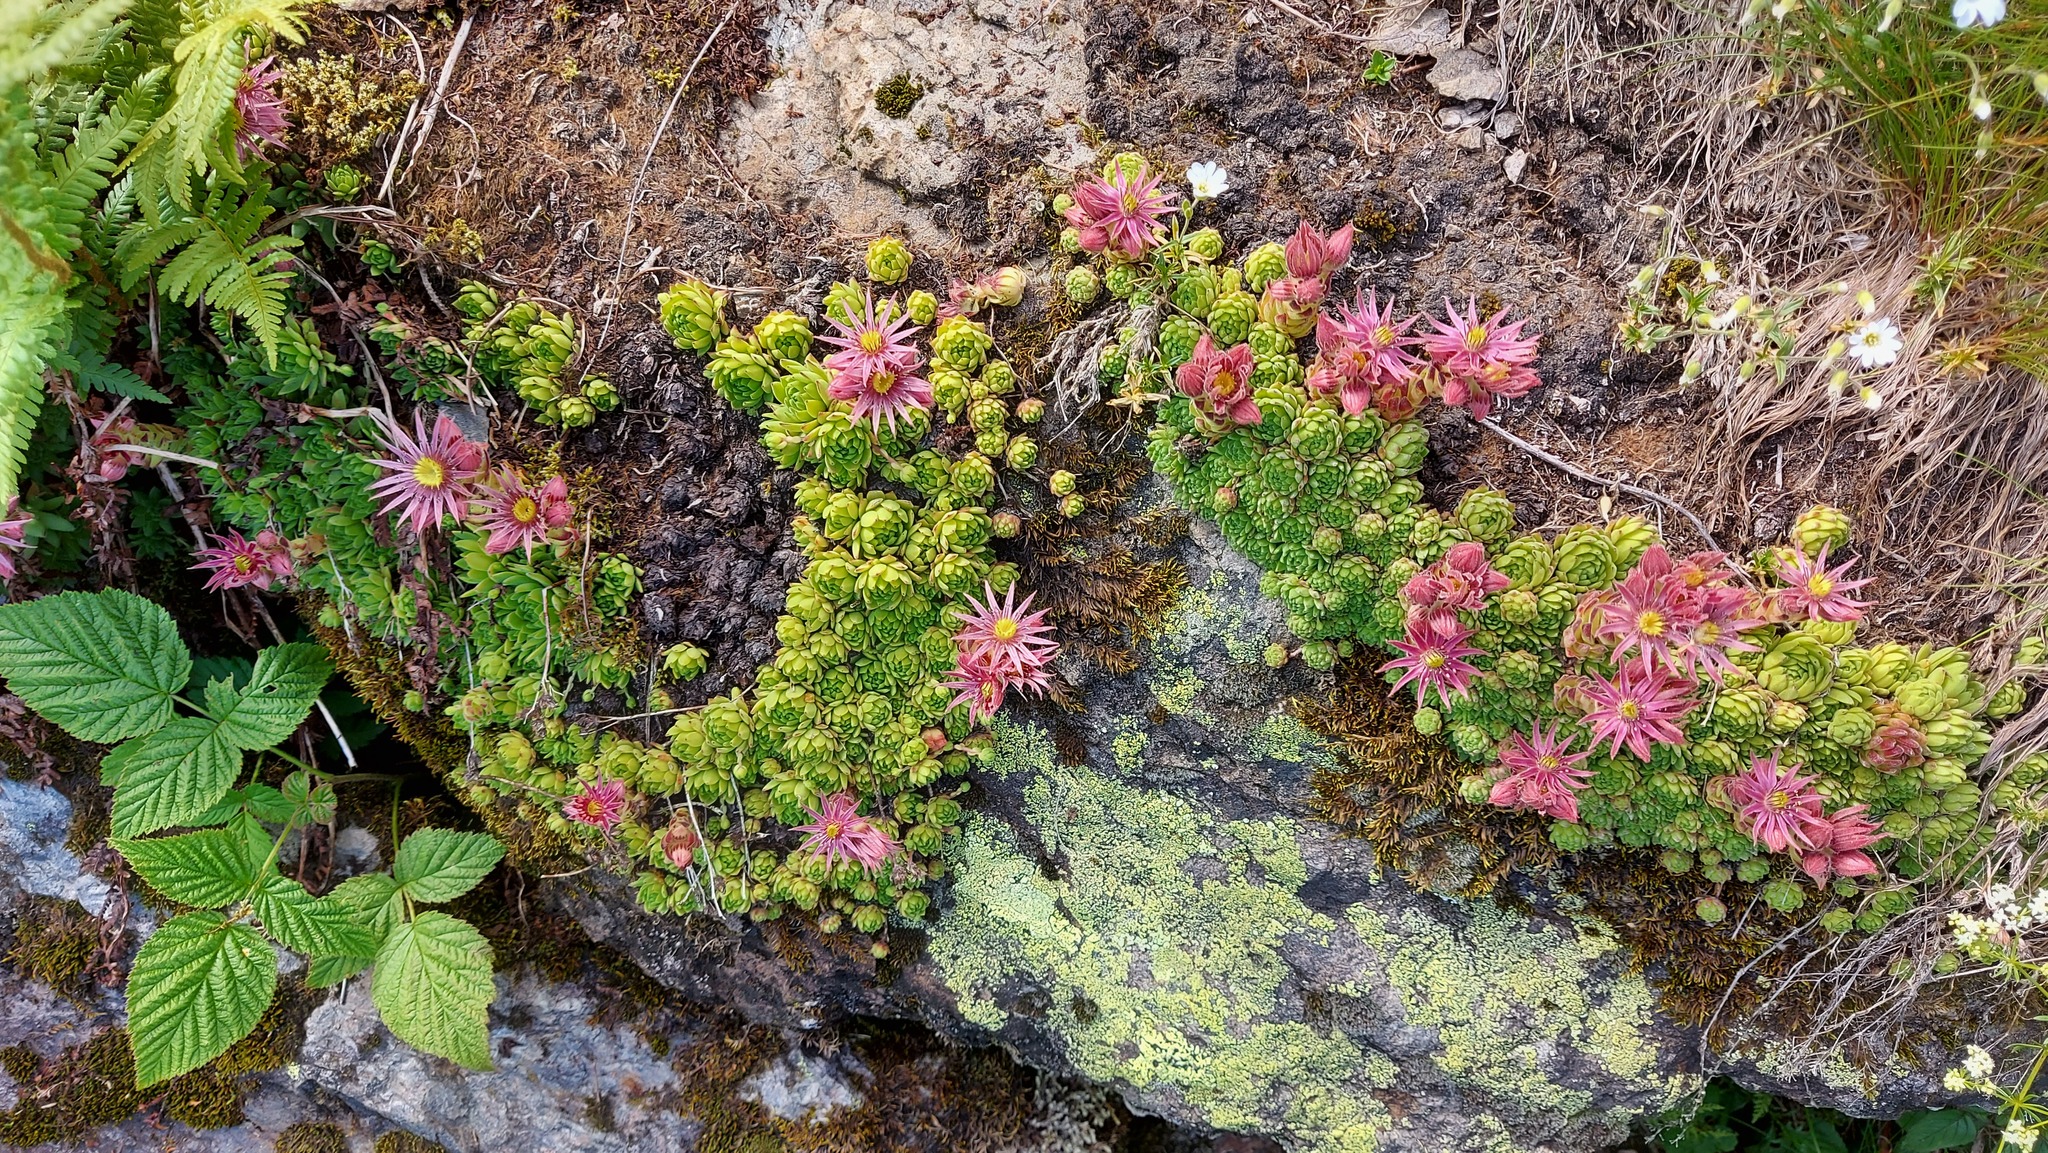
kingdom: Plantae
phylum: Tracheophyta
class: Magnoliopsida
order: Saxifragales
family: Crassulaceae
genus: Sempervivum
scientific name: Sempervivum montanum
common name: Mountain house-leek
